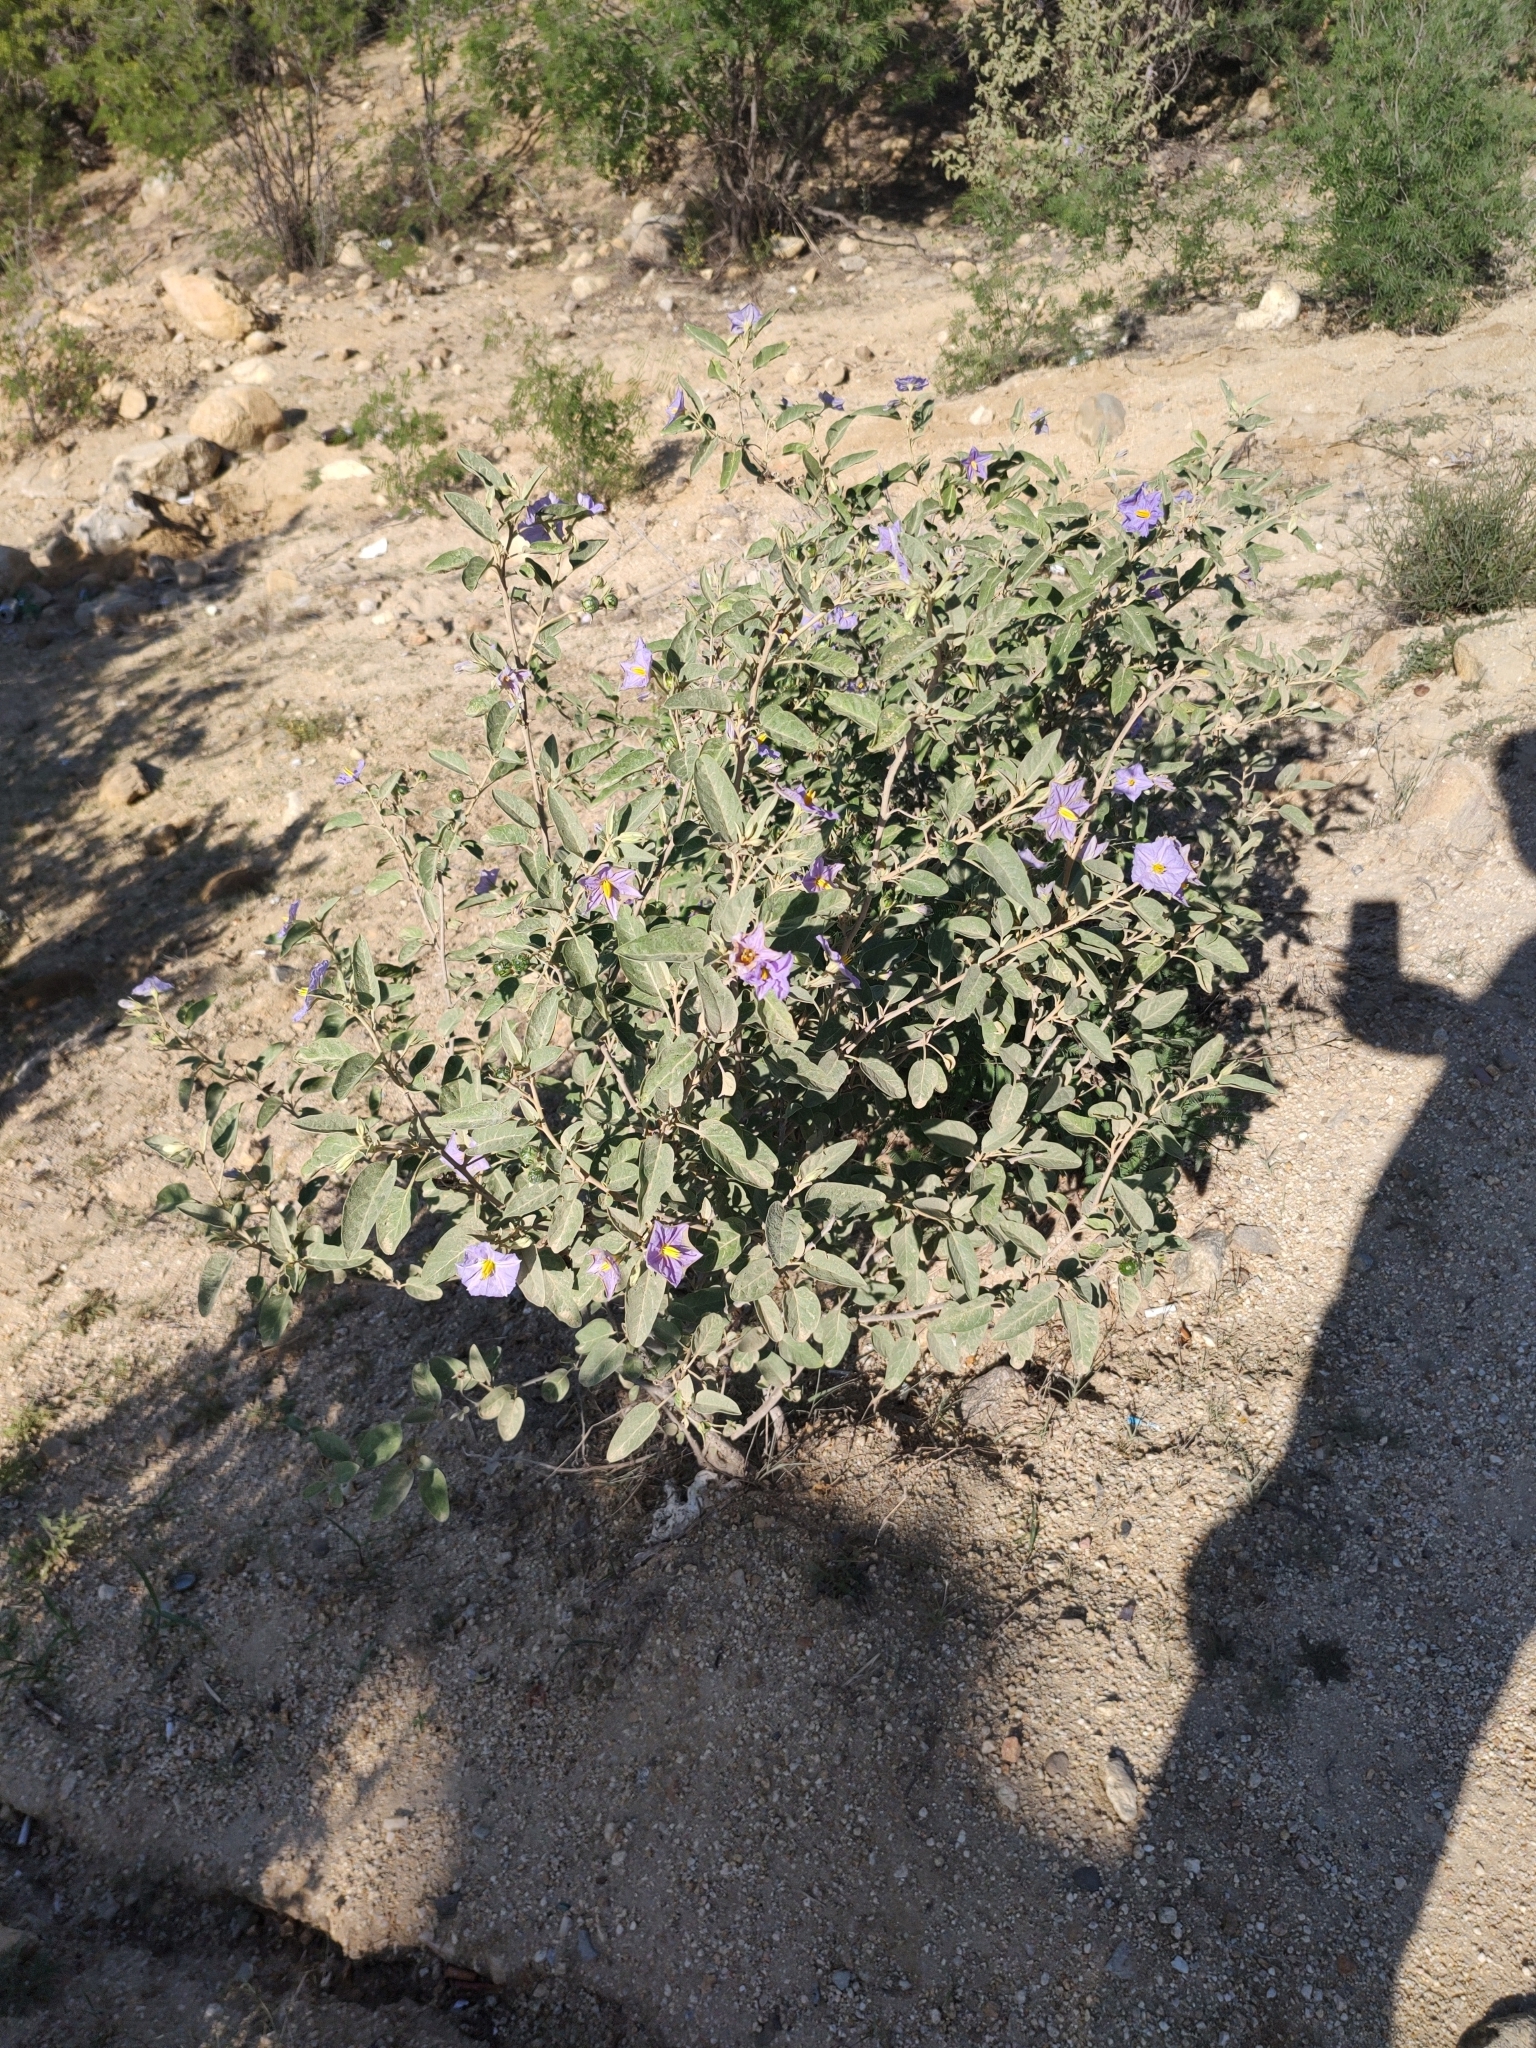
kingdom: Plantae
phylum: Tracheophyta
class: Magnoliopsida
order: Solanales
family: Solanaceae
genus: Solanum
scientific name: Solanum hindsianum
